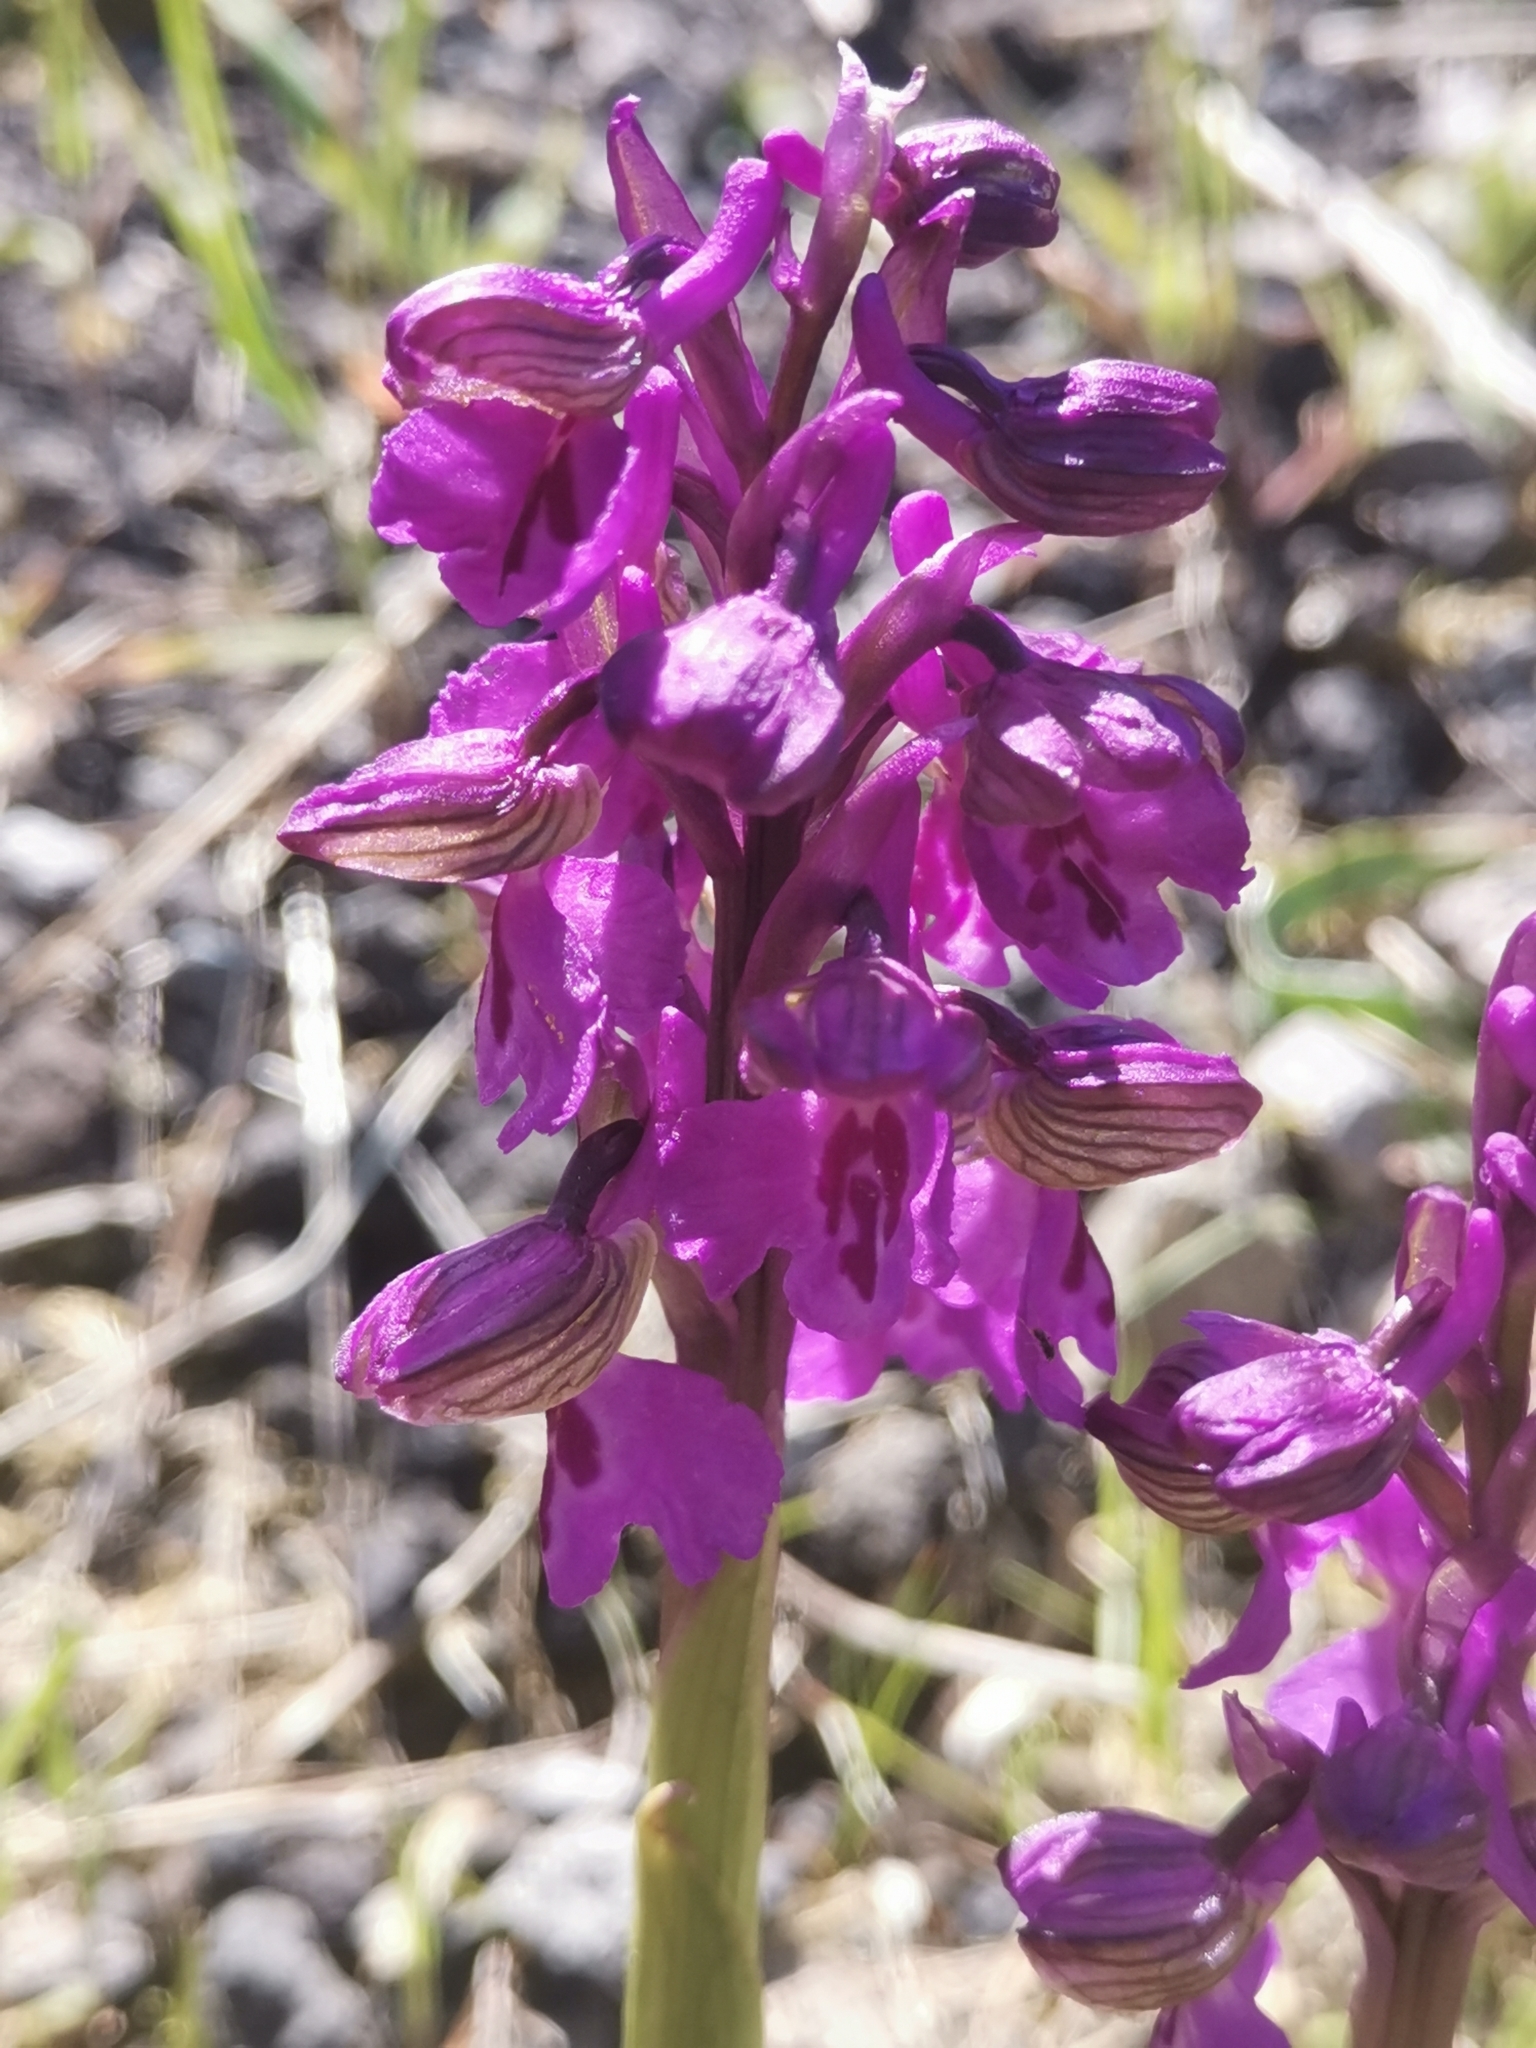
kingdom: Plantae
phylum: Tracheophyta
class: Liliopsida
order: Asparagales
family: Orchidaceae
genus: Anacamptis
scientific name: Anacamptis morio
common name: Green-winged orchid
